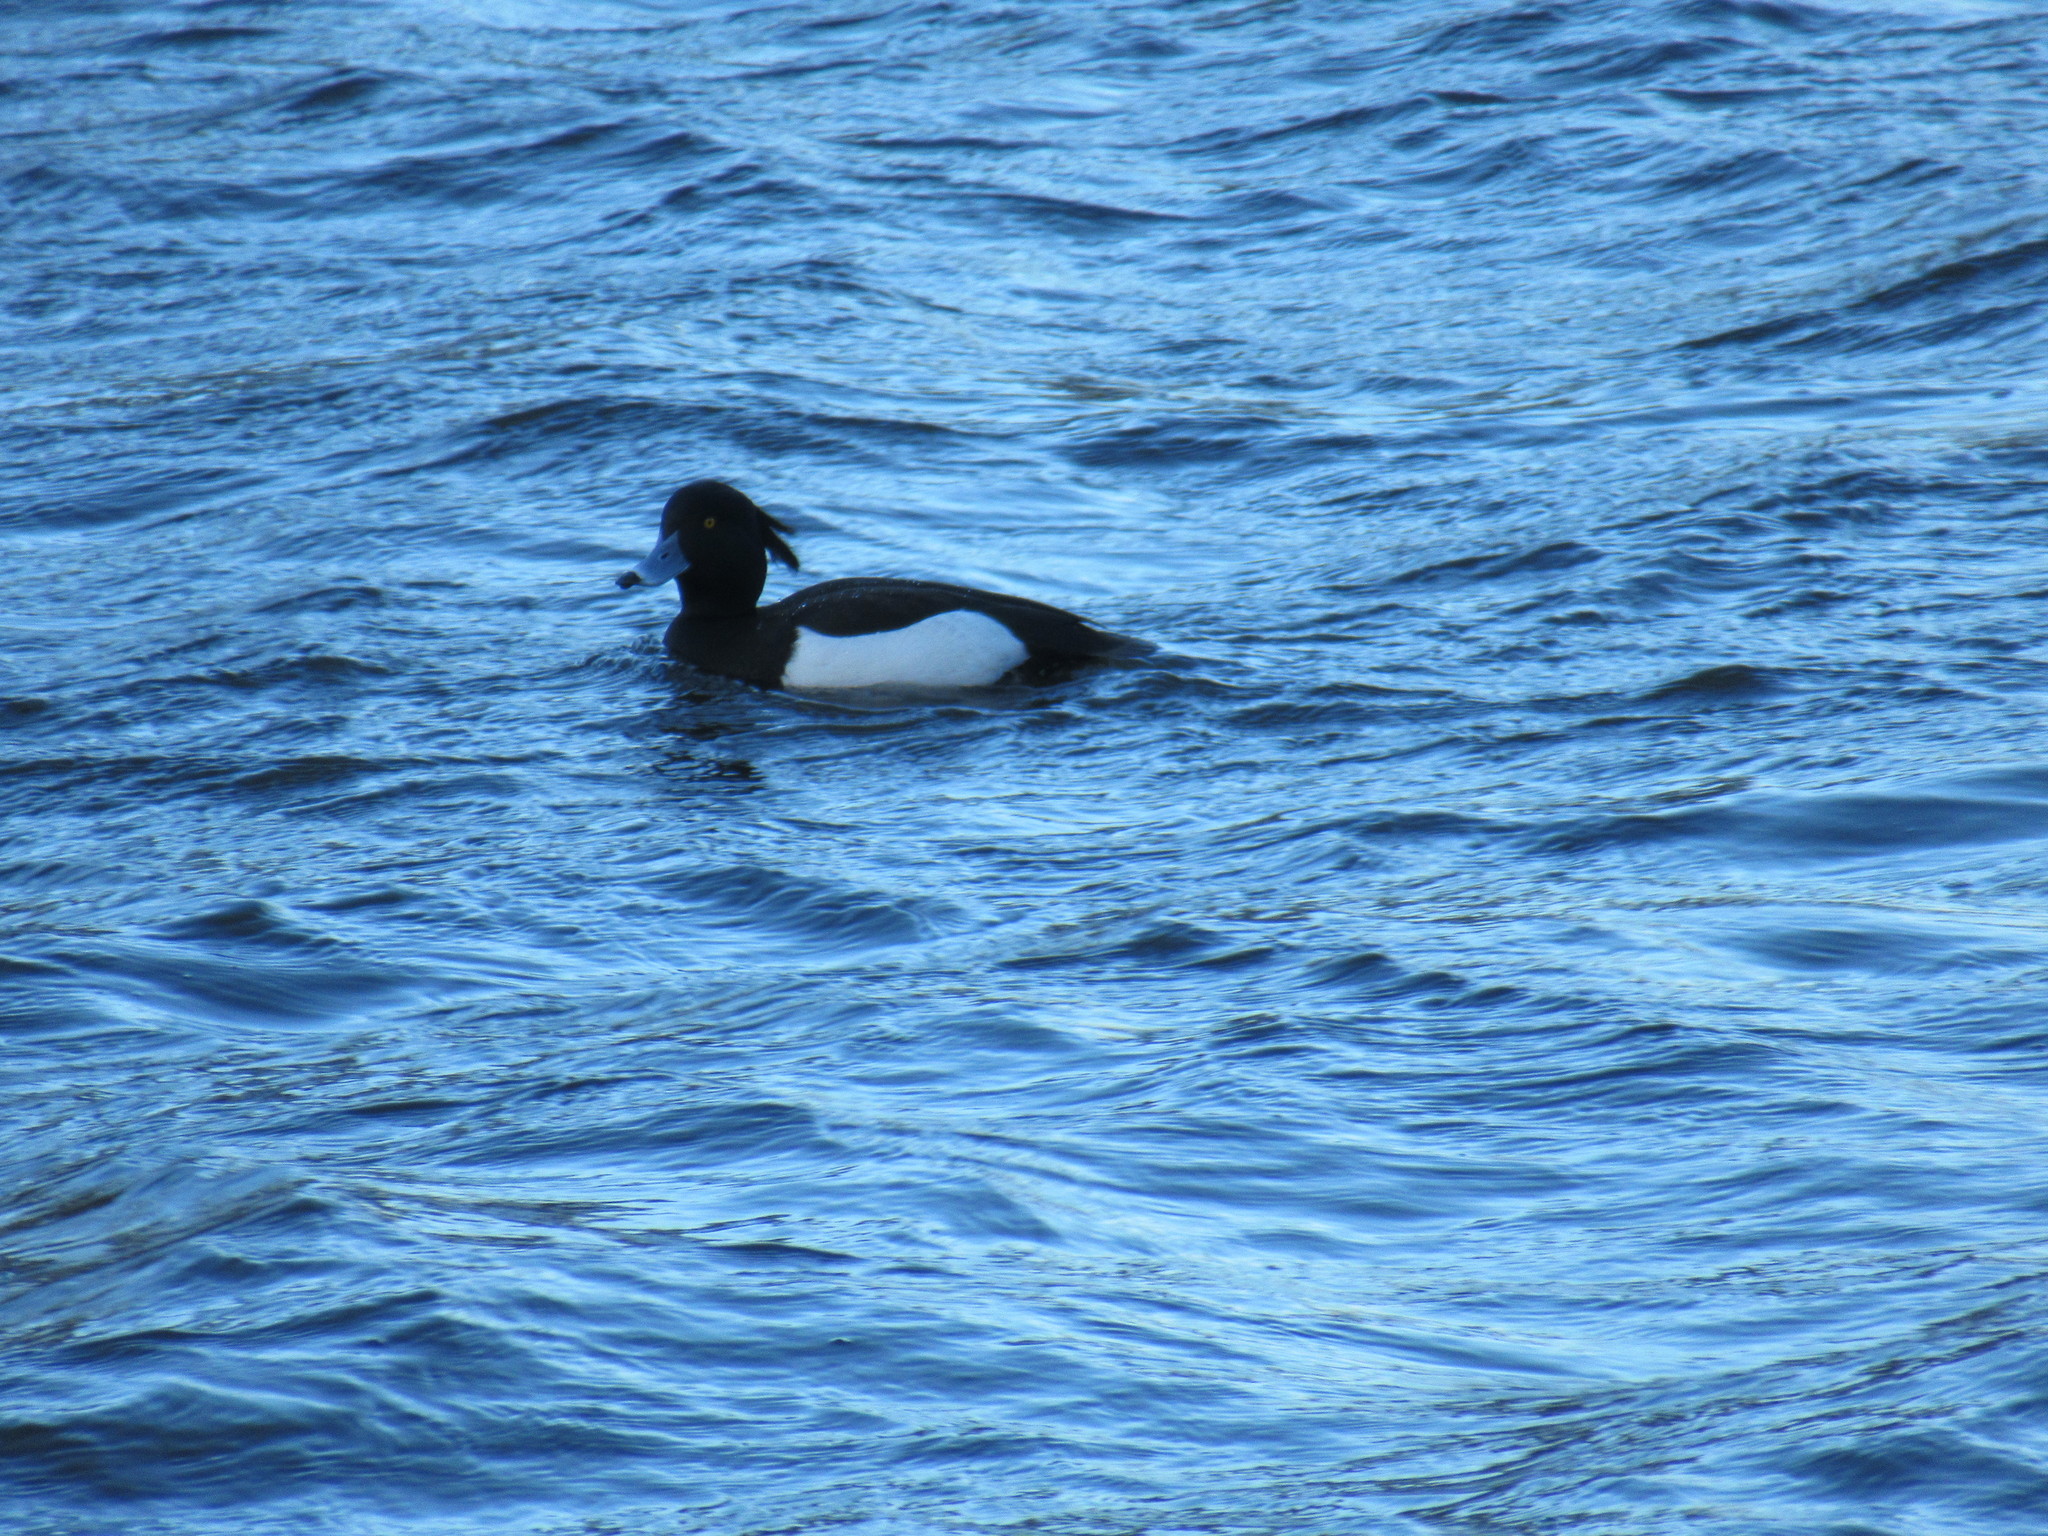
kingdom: Animalia
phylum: Chordata
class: Aves
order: Anseriformes
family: Anatidae
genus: Aythya
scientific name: Aythya fuligula
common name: Tufted duck
